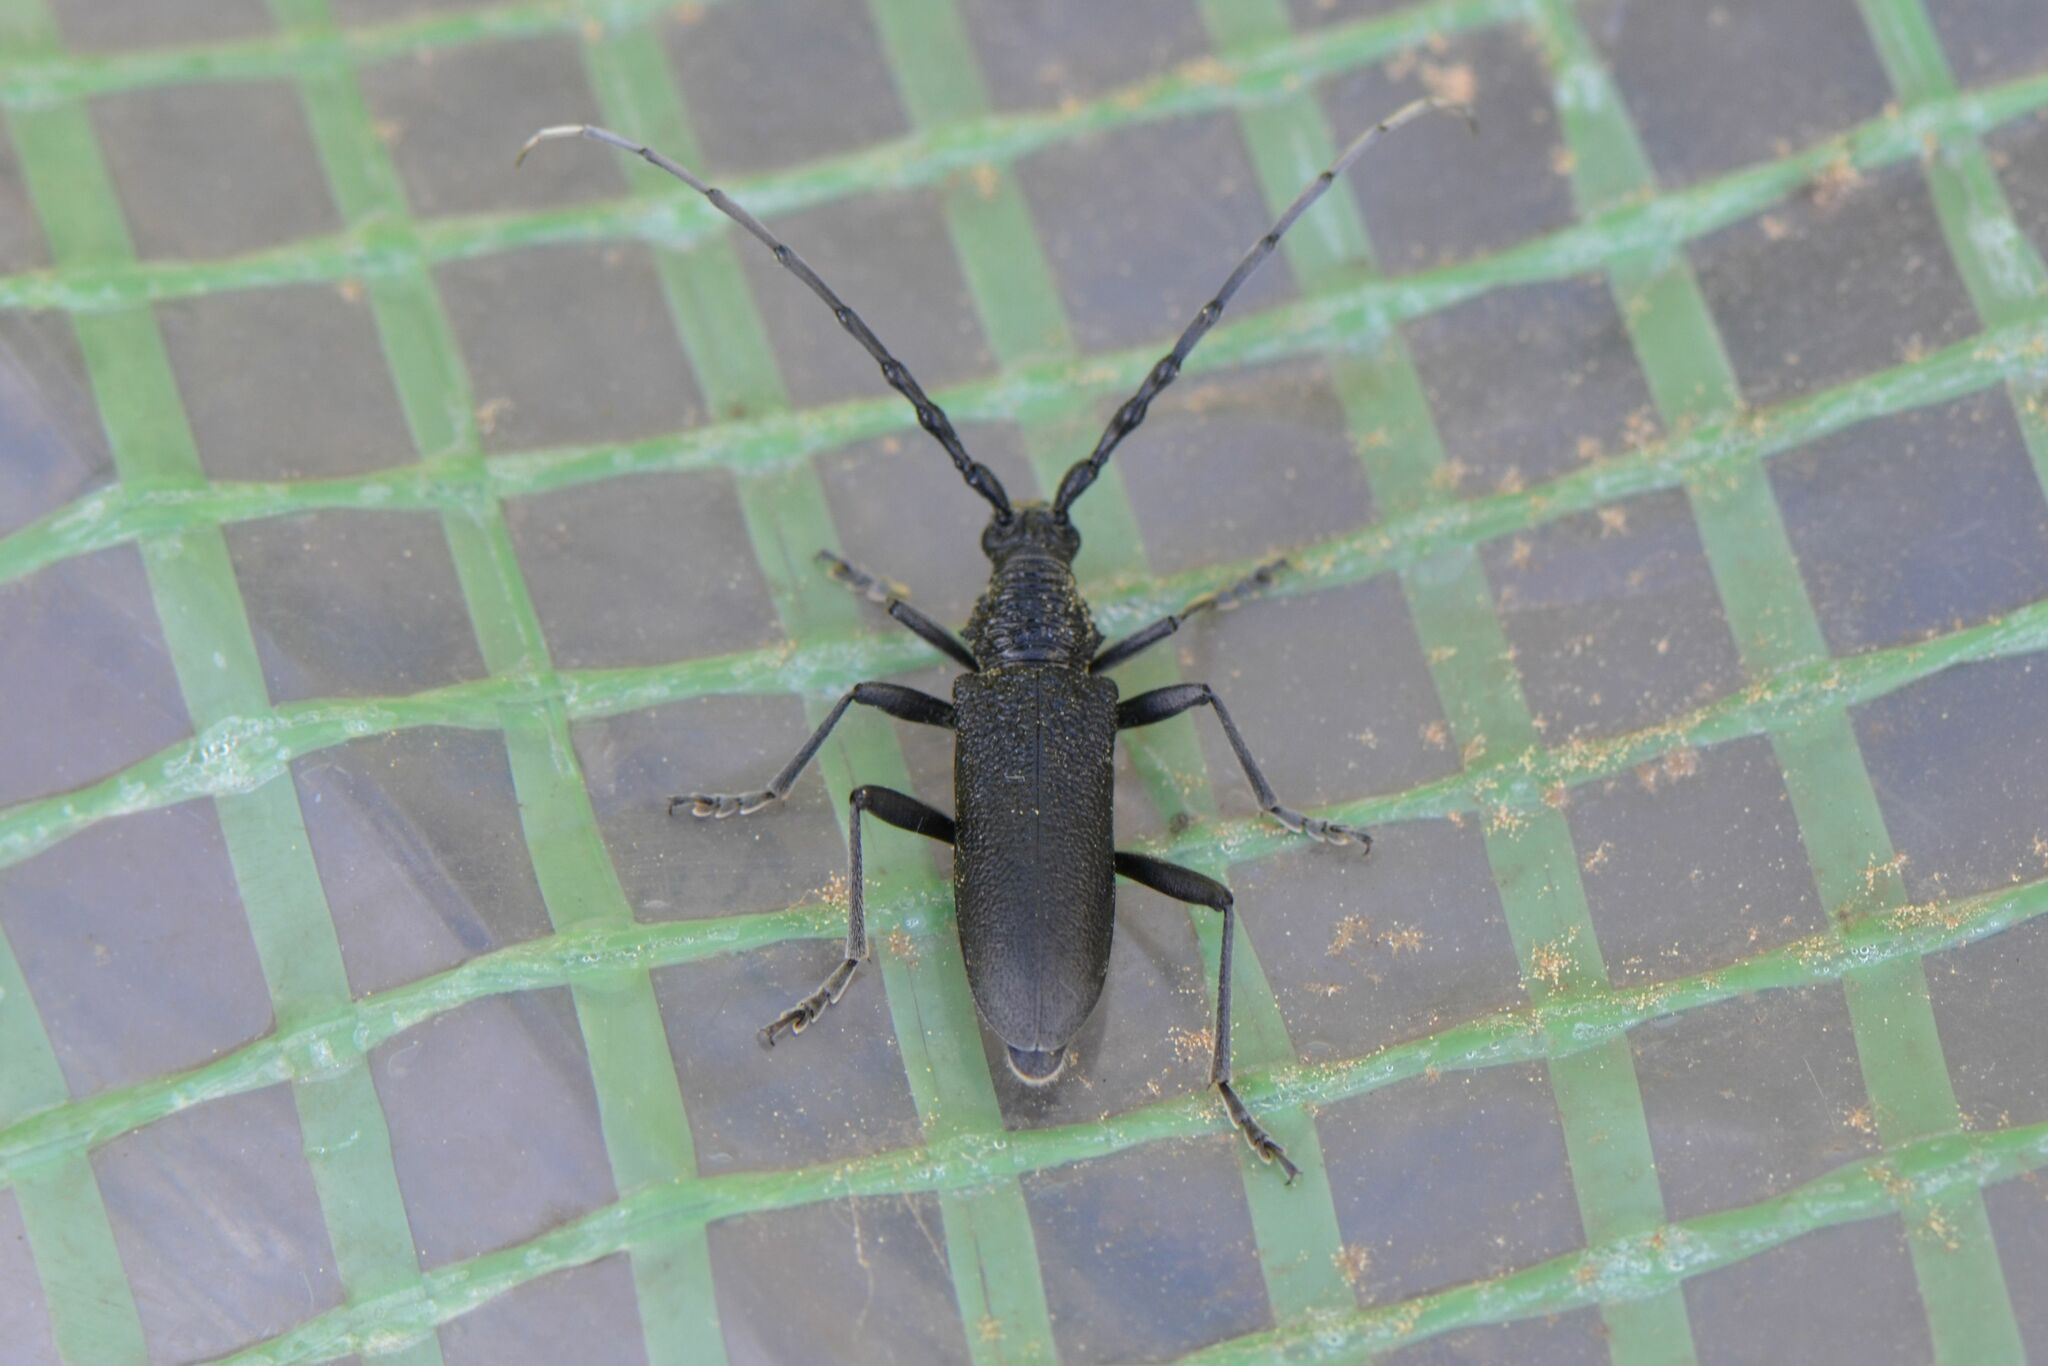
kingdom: Animalia
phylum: Arthropoda
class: Insecta
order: Coleoptera
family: Cerambycidae
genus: Cerambyx
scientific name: Cerambyx scopolii
